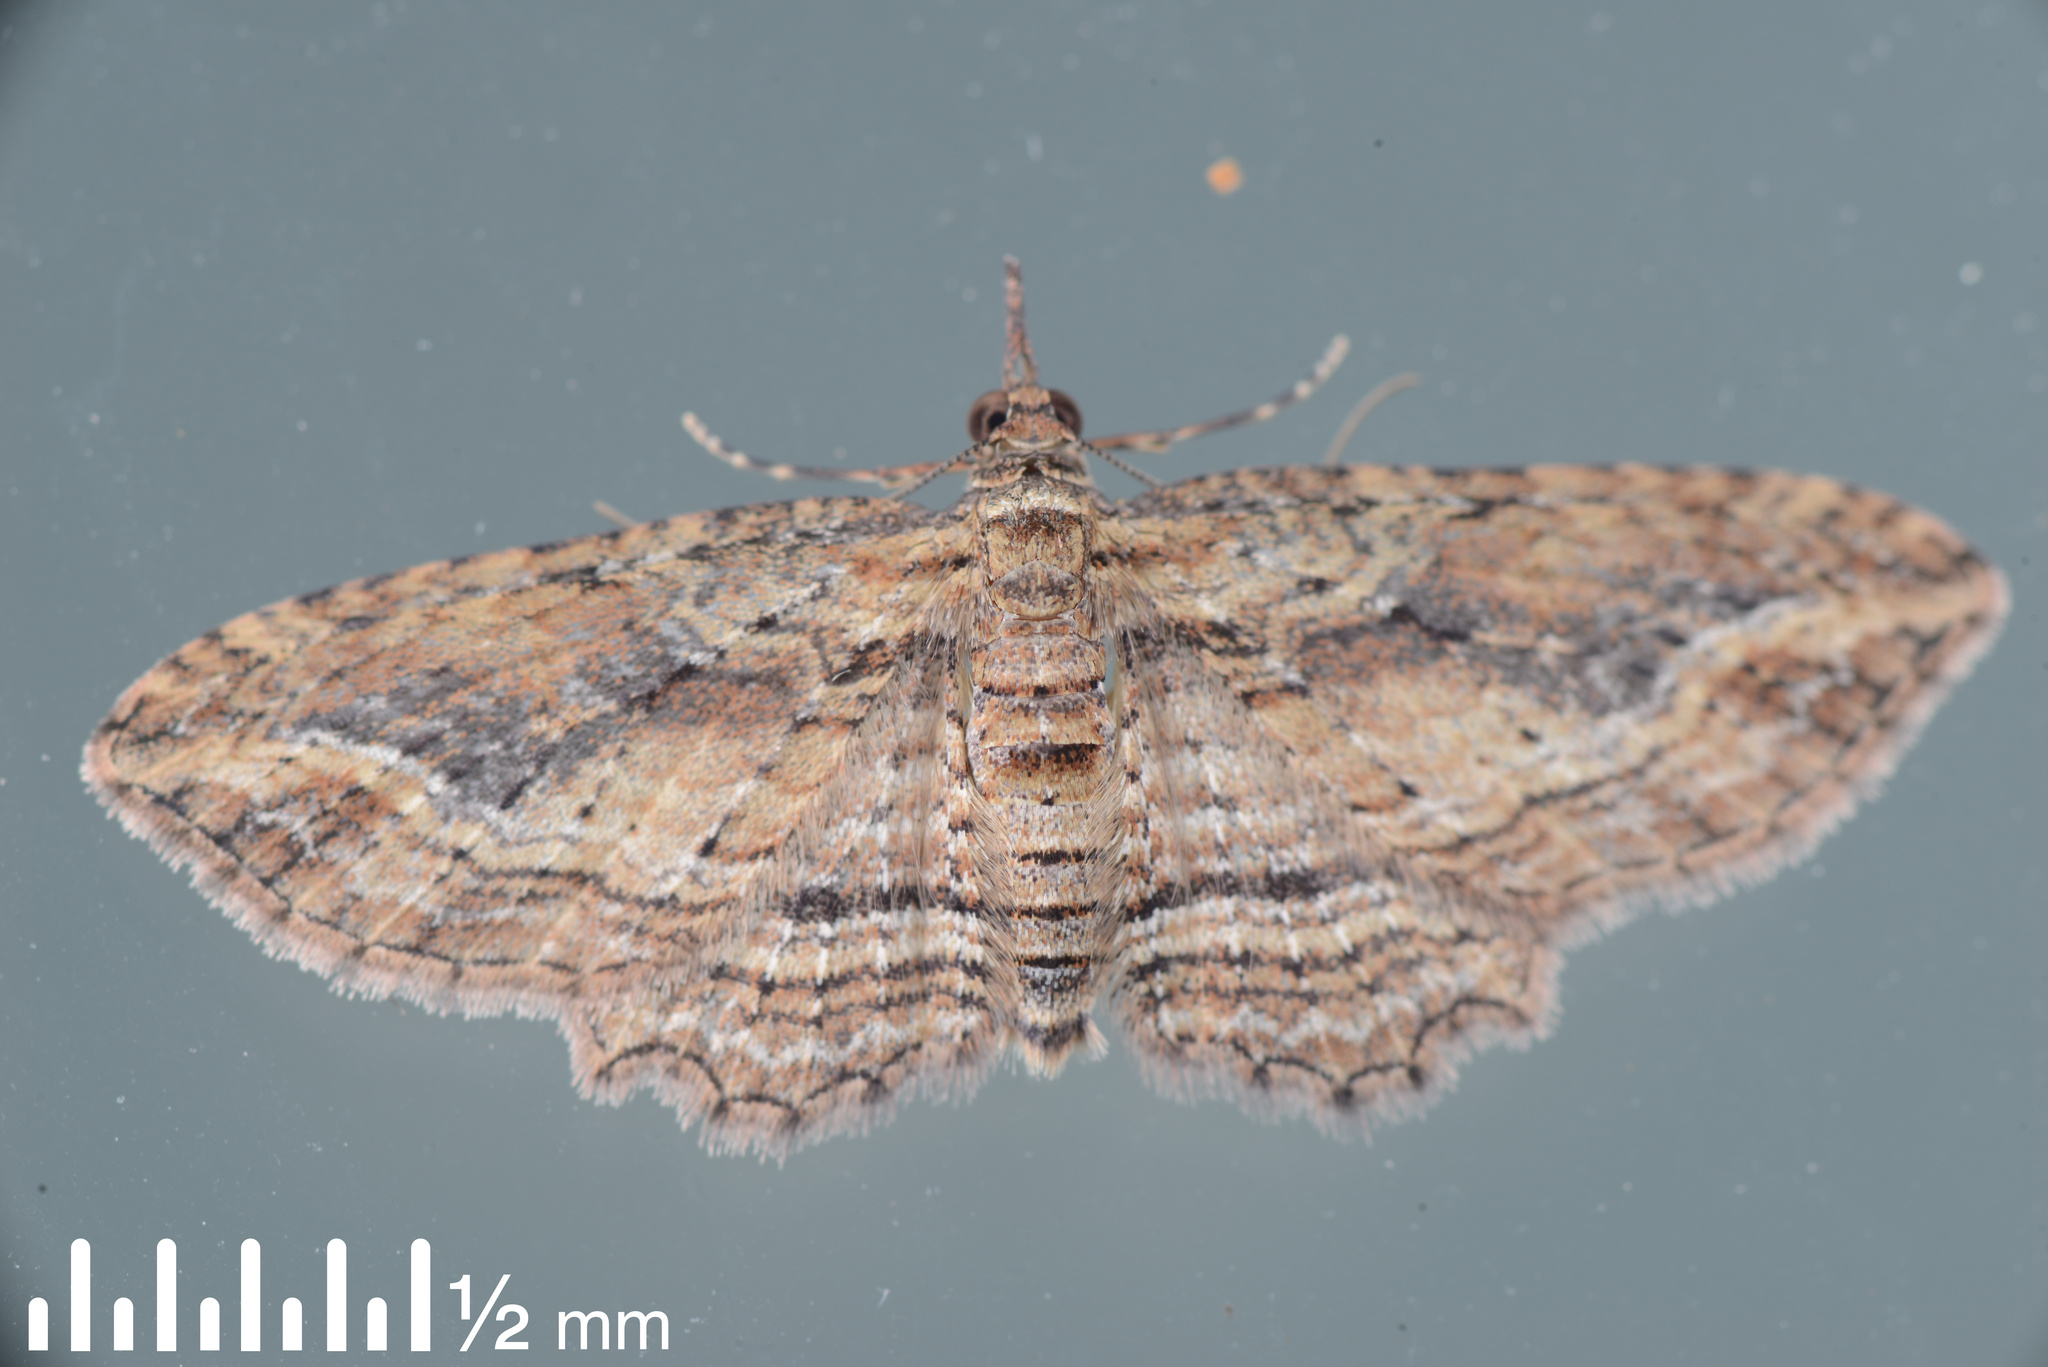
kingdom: Animalia
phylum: Arthropoda
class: Insecta
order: Lepidoptera
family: Geometridae
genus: Chloroclystis
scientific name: Chloroclystis filata
